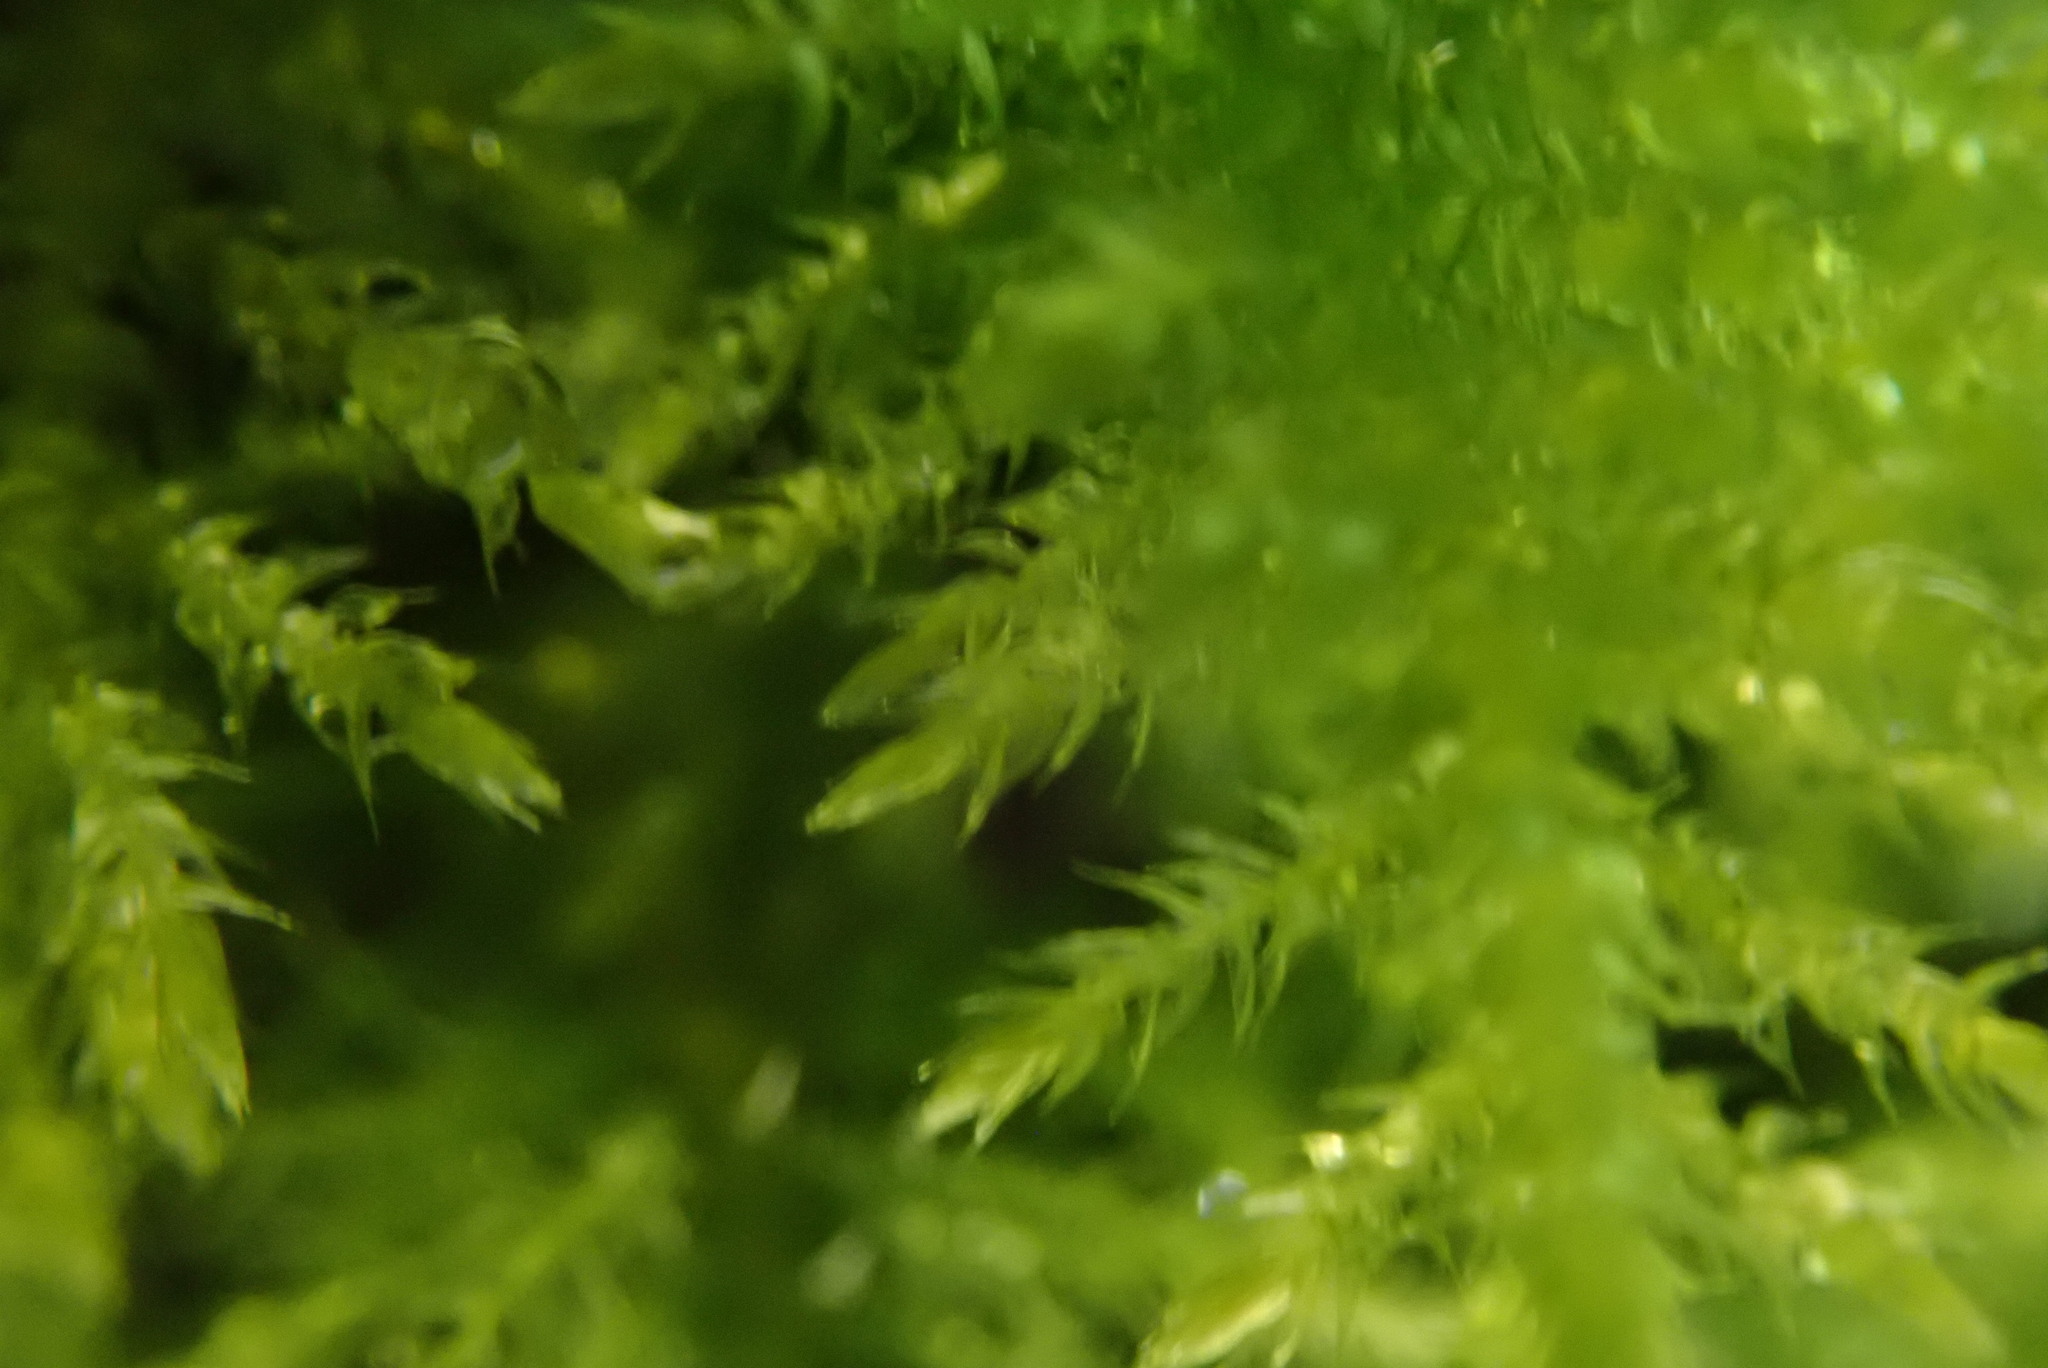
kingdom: Plantae
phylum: Bryophyta
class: Bryopsida
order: Hypnales
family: Brachytheciaceae
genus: Kindbergia
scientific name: Kindbergia praelonga
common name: Slender beaked moss
